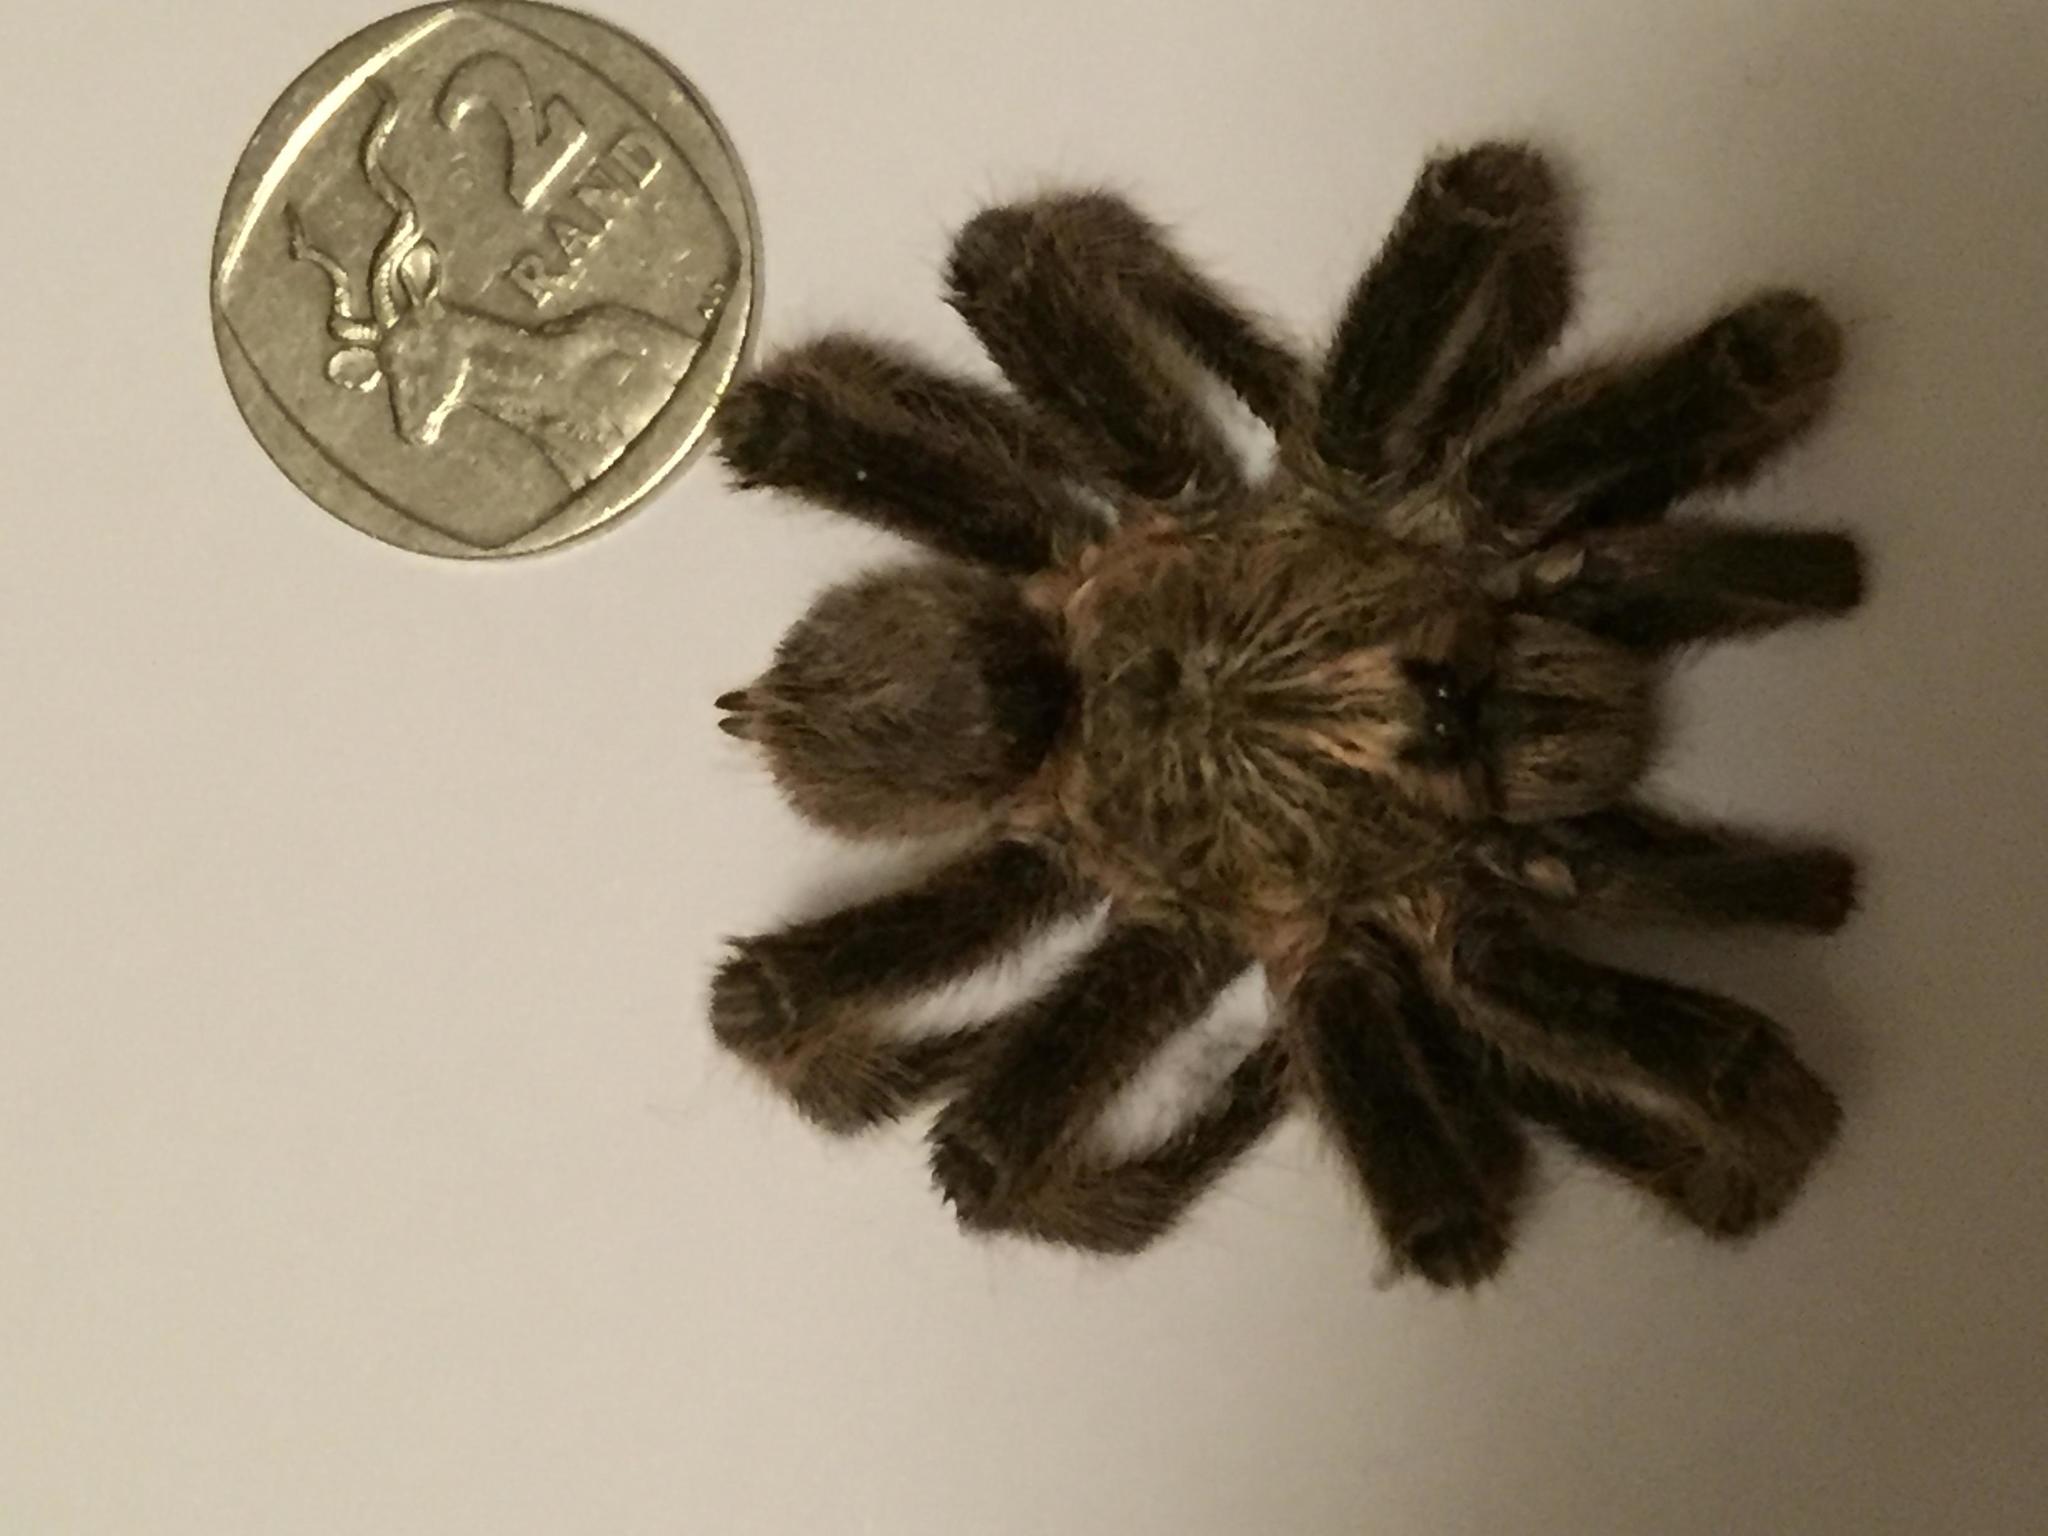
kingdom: Animalia
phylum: Arthropoda
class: Arachnida
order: Araneae
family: Theraphosidae
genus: Harpactira
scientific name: Harpactira dictator
